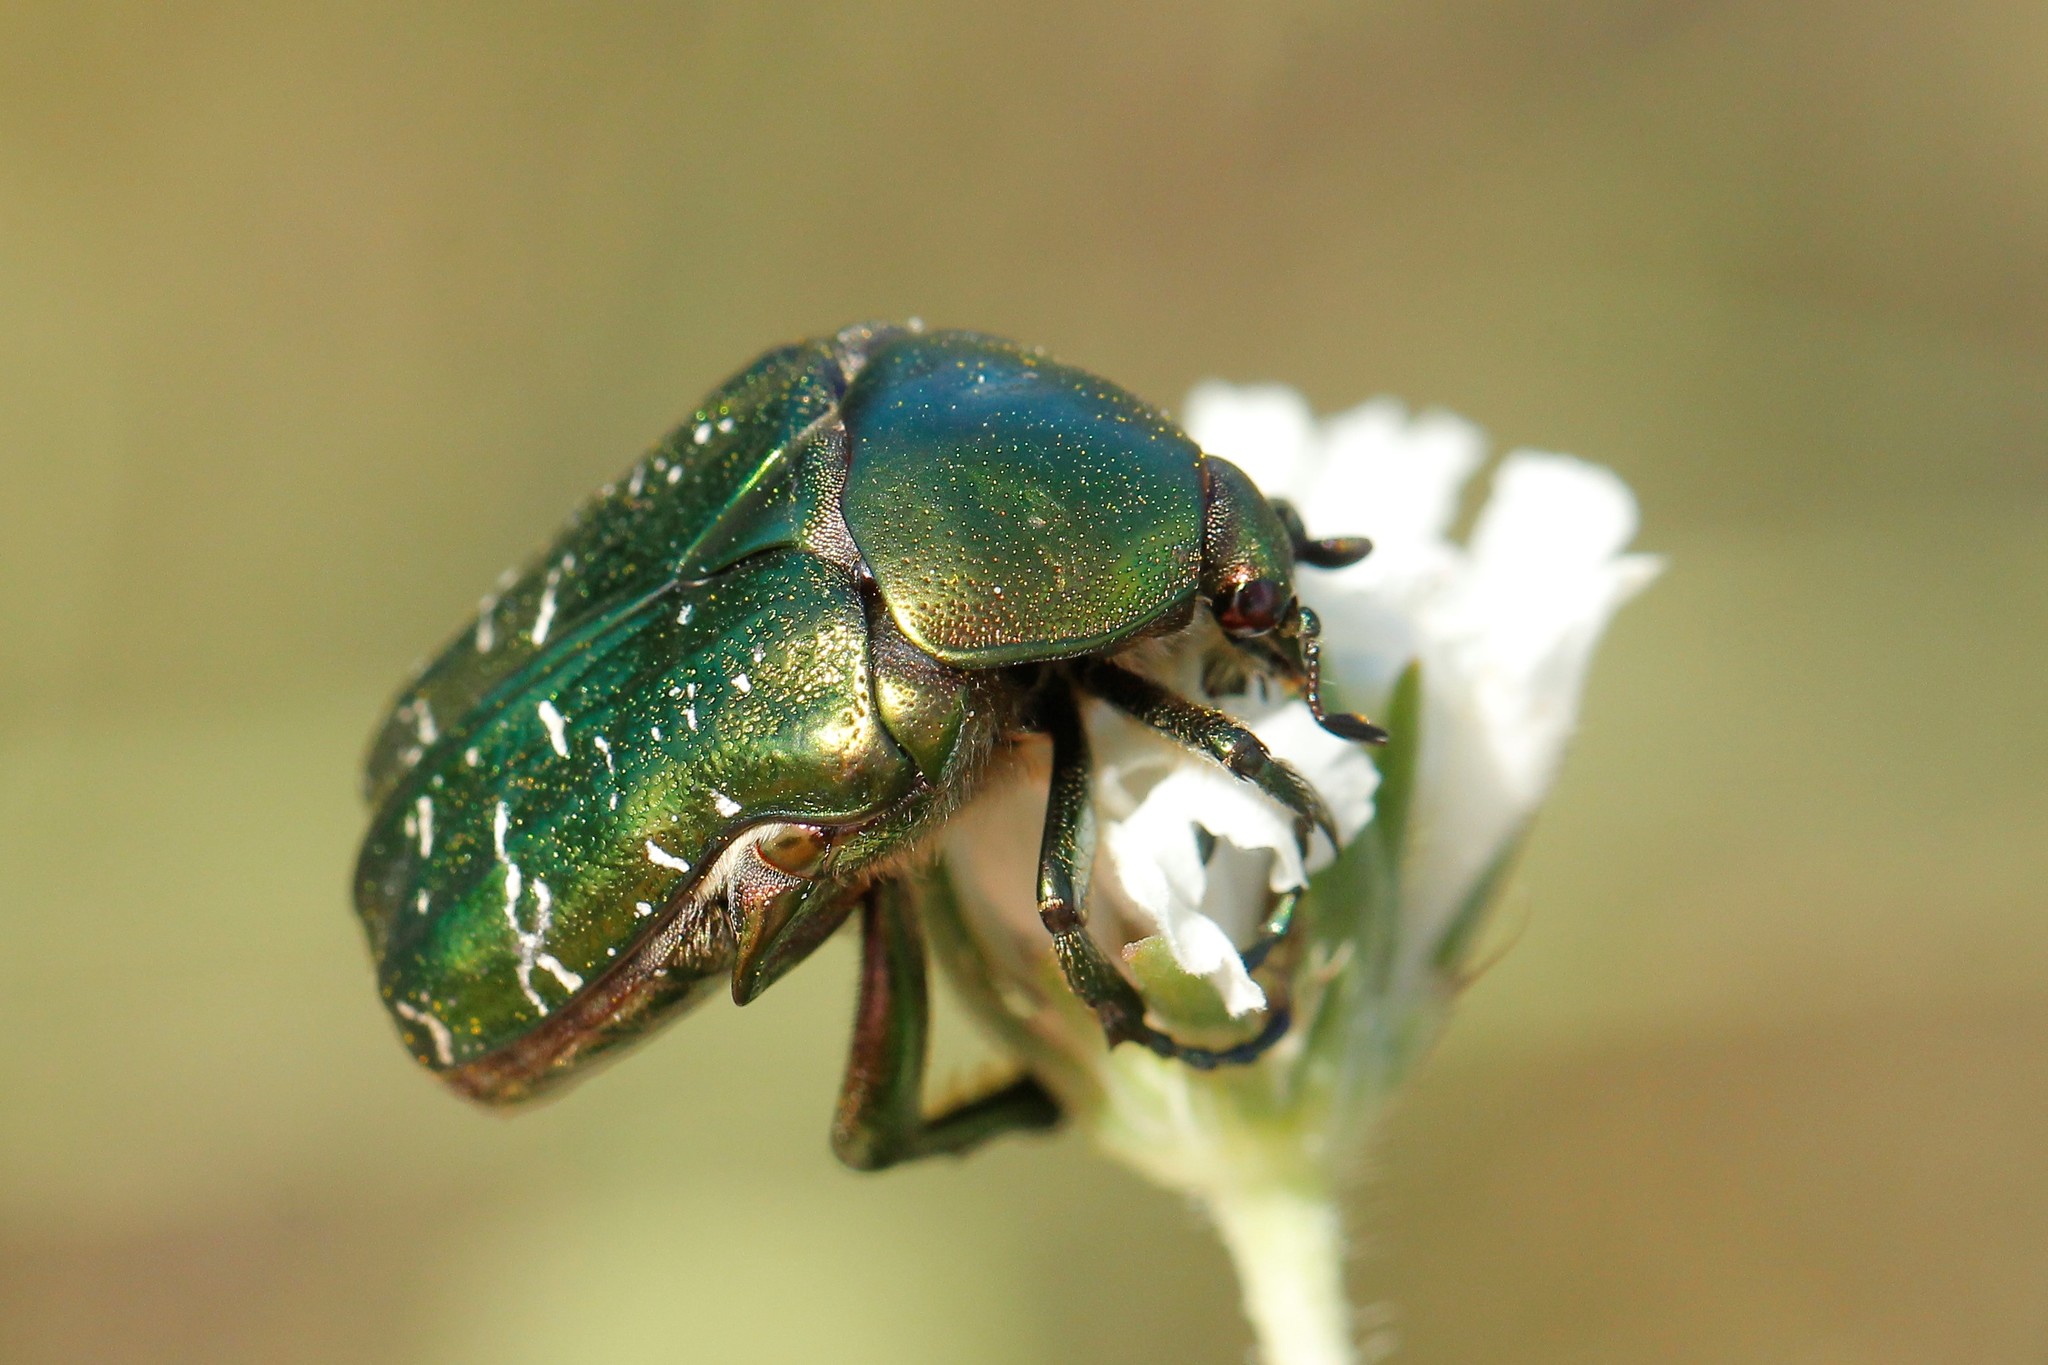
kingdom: Animalia
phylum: Arthropoda
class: Insecta
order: Coleoptera
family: Scarabaeidae
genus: Cetonia
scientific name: Cetonia aurata
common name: Rose chafer
